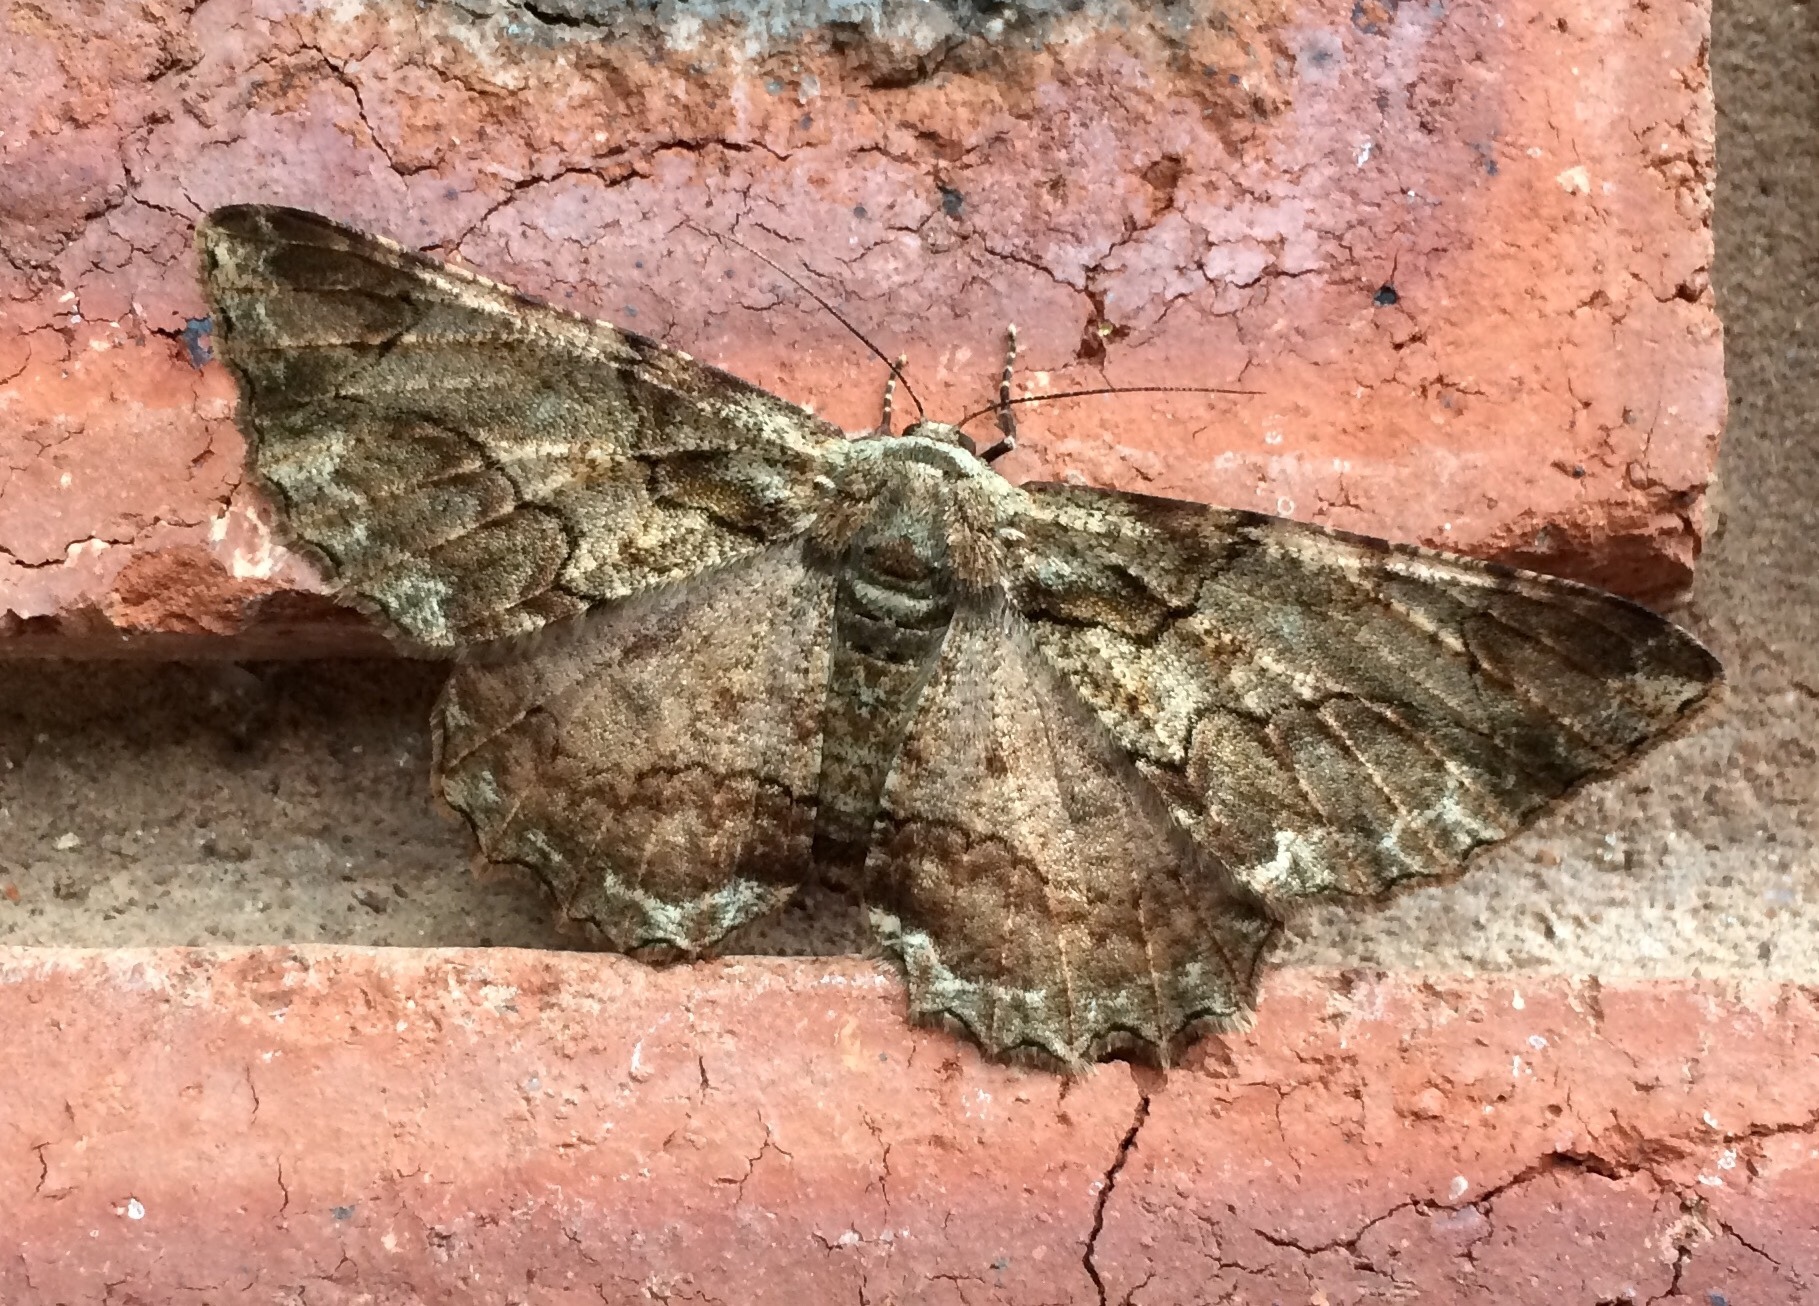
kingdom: Animalia
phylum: Arthropoda
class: Insecta
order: Lepidoptera
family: Geometridae
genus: Colocleora
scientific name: Colocleora divisaria
